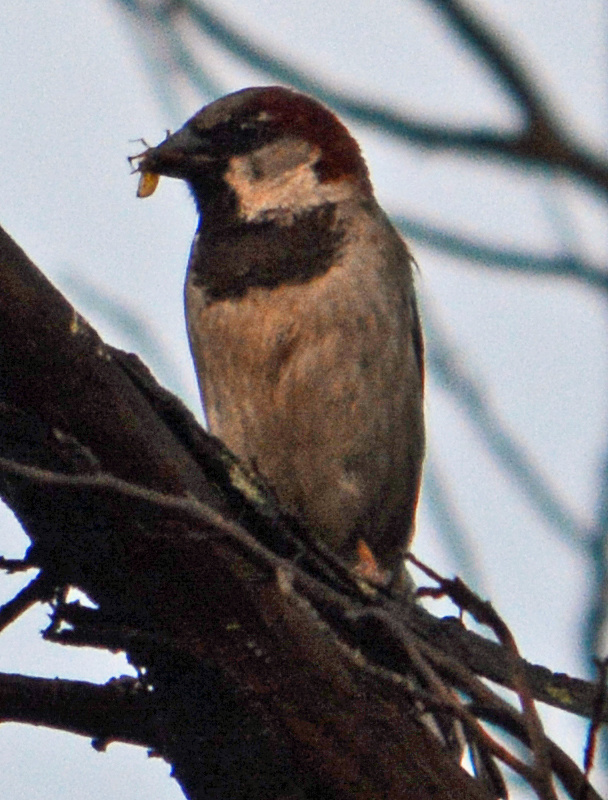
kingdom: Animalia
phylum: Chordata
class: Aves
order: Passeriformes
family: Passeridae
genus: Passer
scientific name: Passer domesticus
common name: House sparrow
